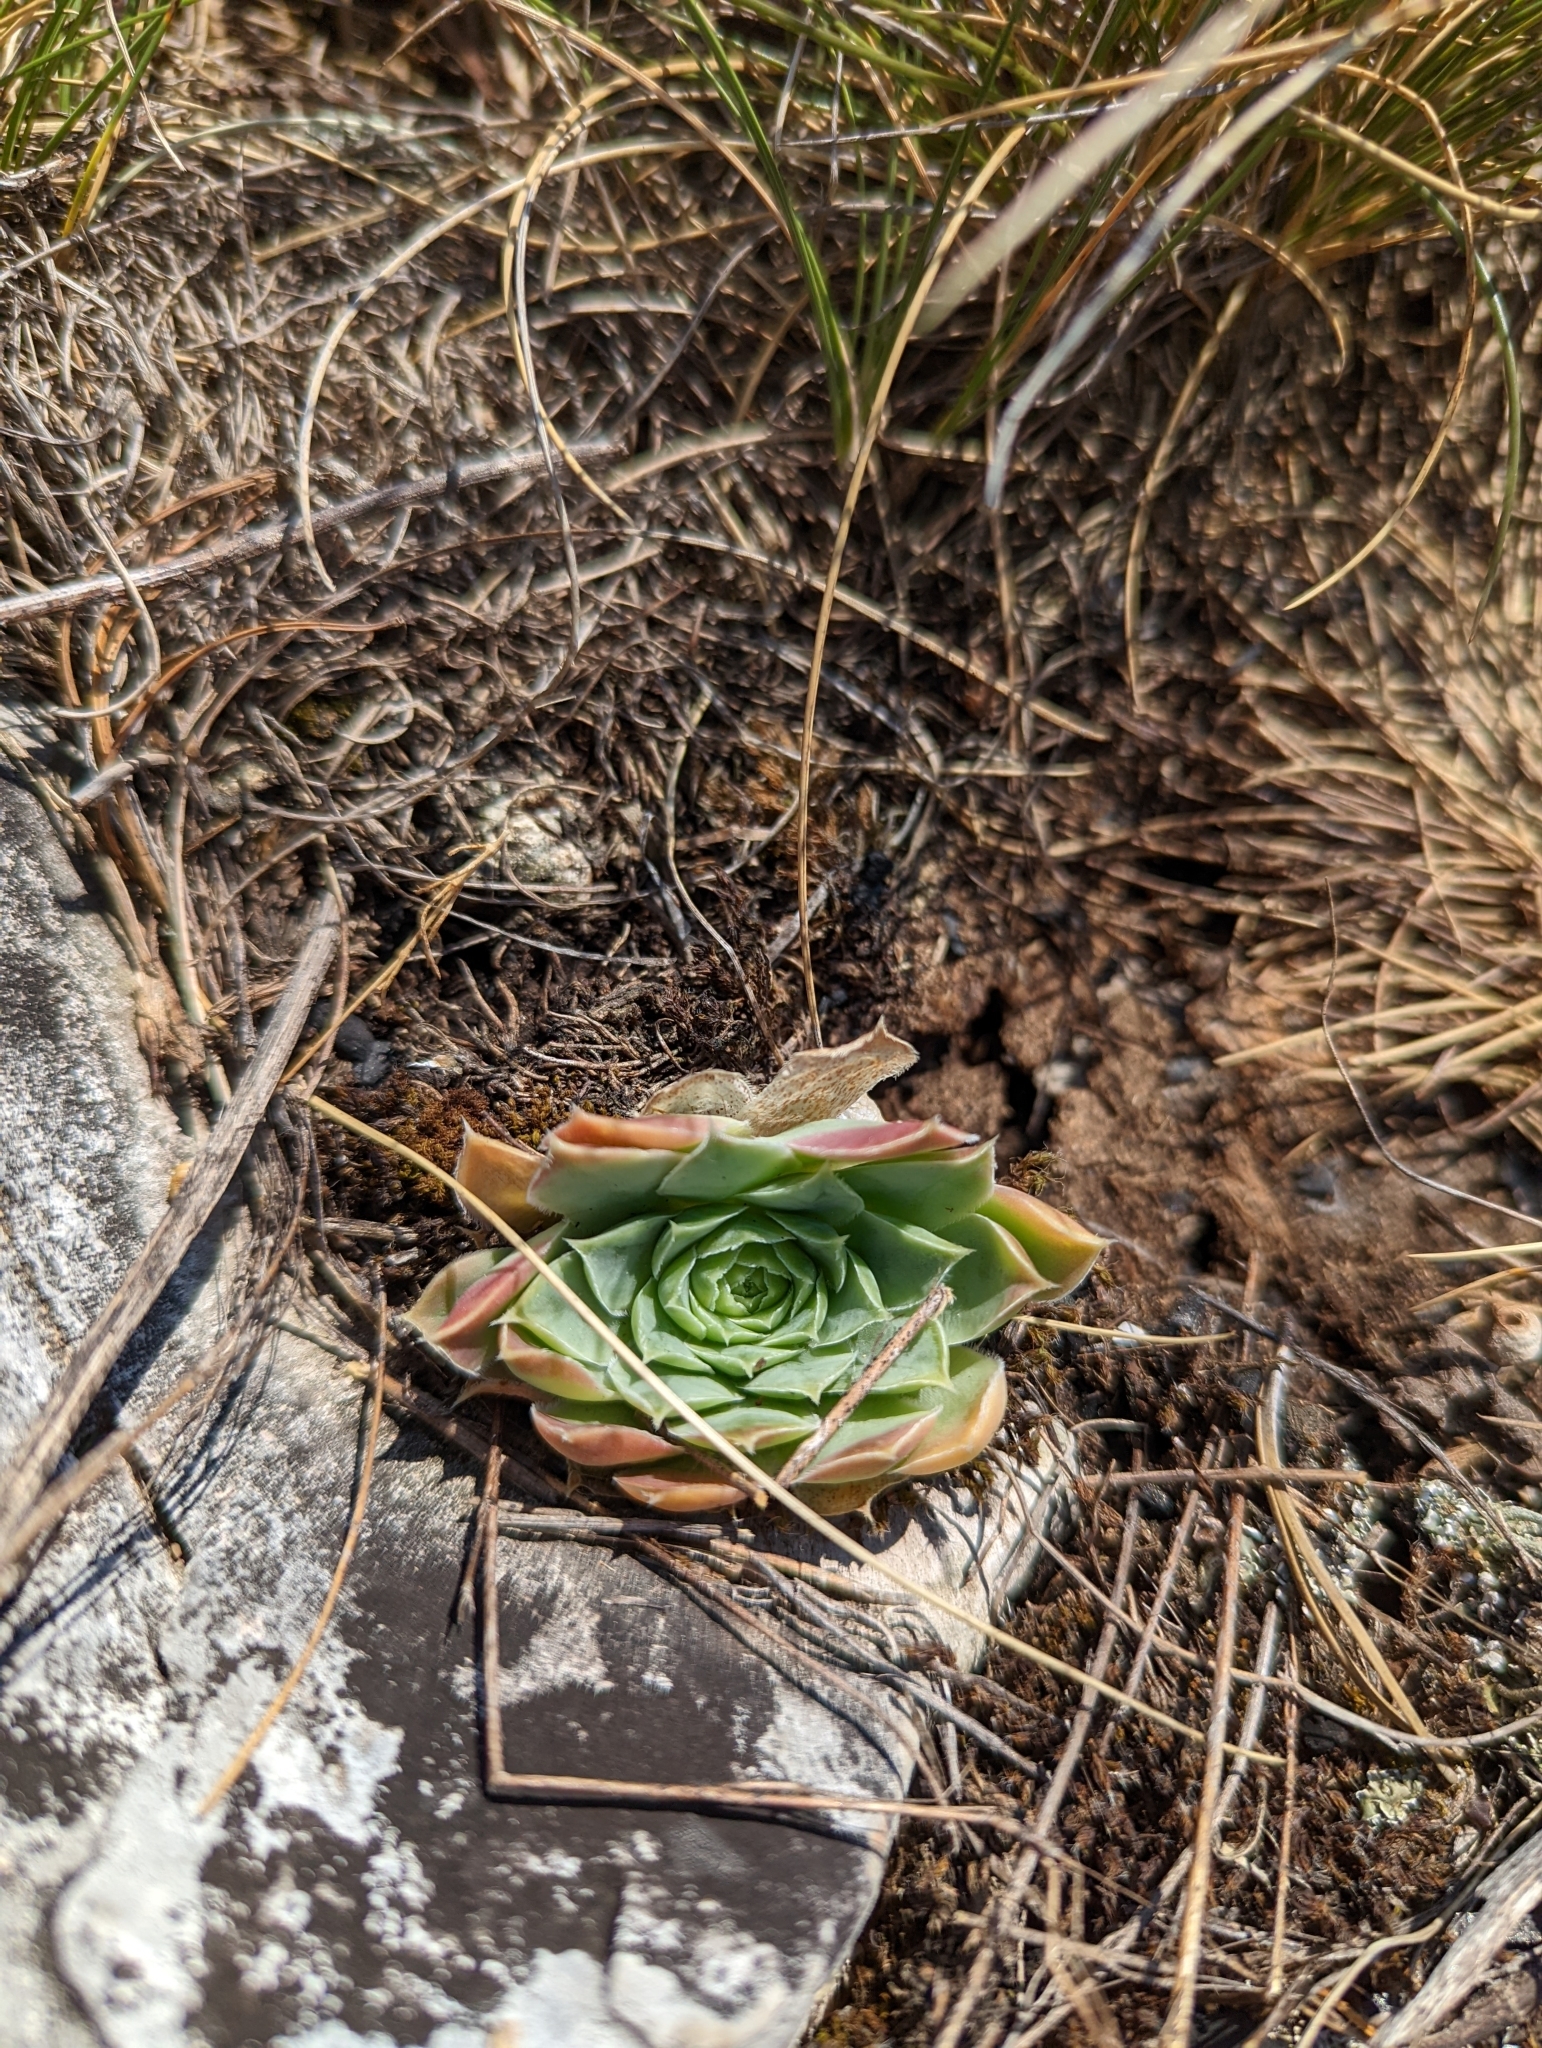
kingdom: Plantae
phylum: Tracheophyta
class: Magnoliopsida
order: Saxifragales
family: Crassulaceae
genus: Sempervivum
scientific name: Sempervivum heuffelii
